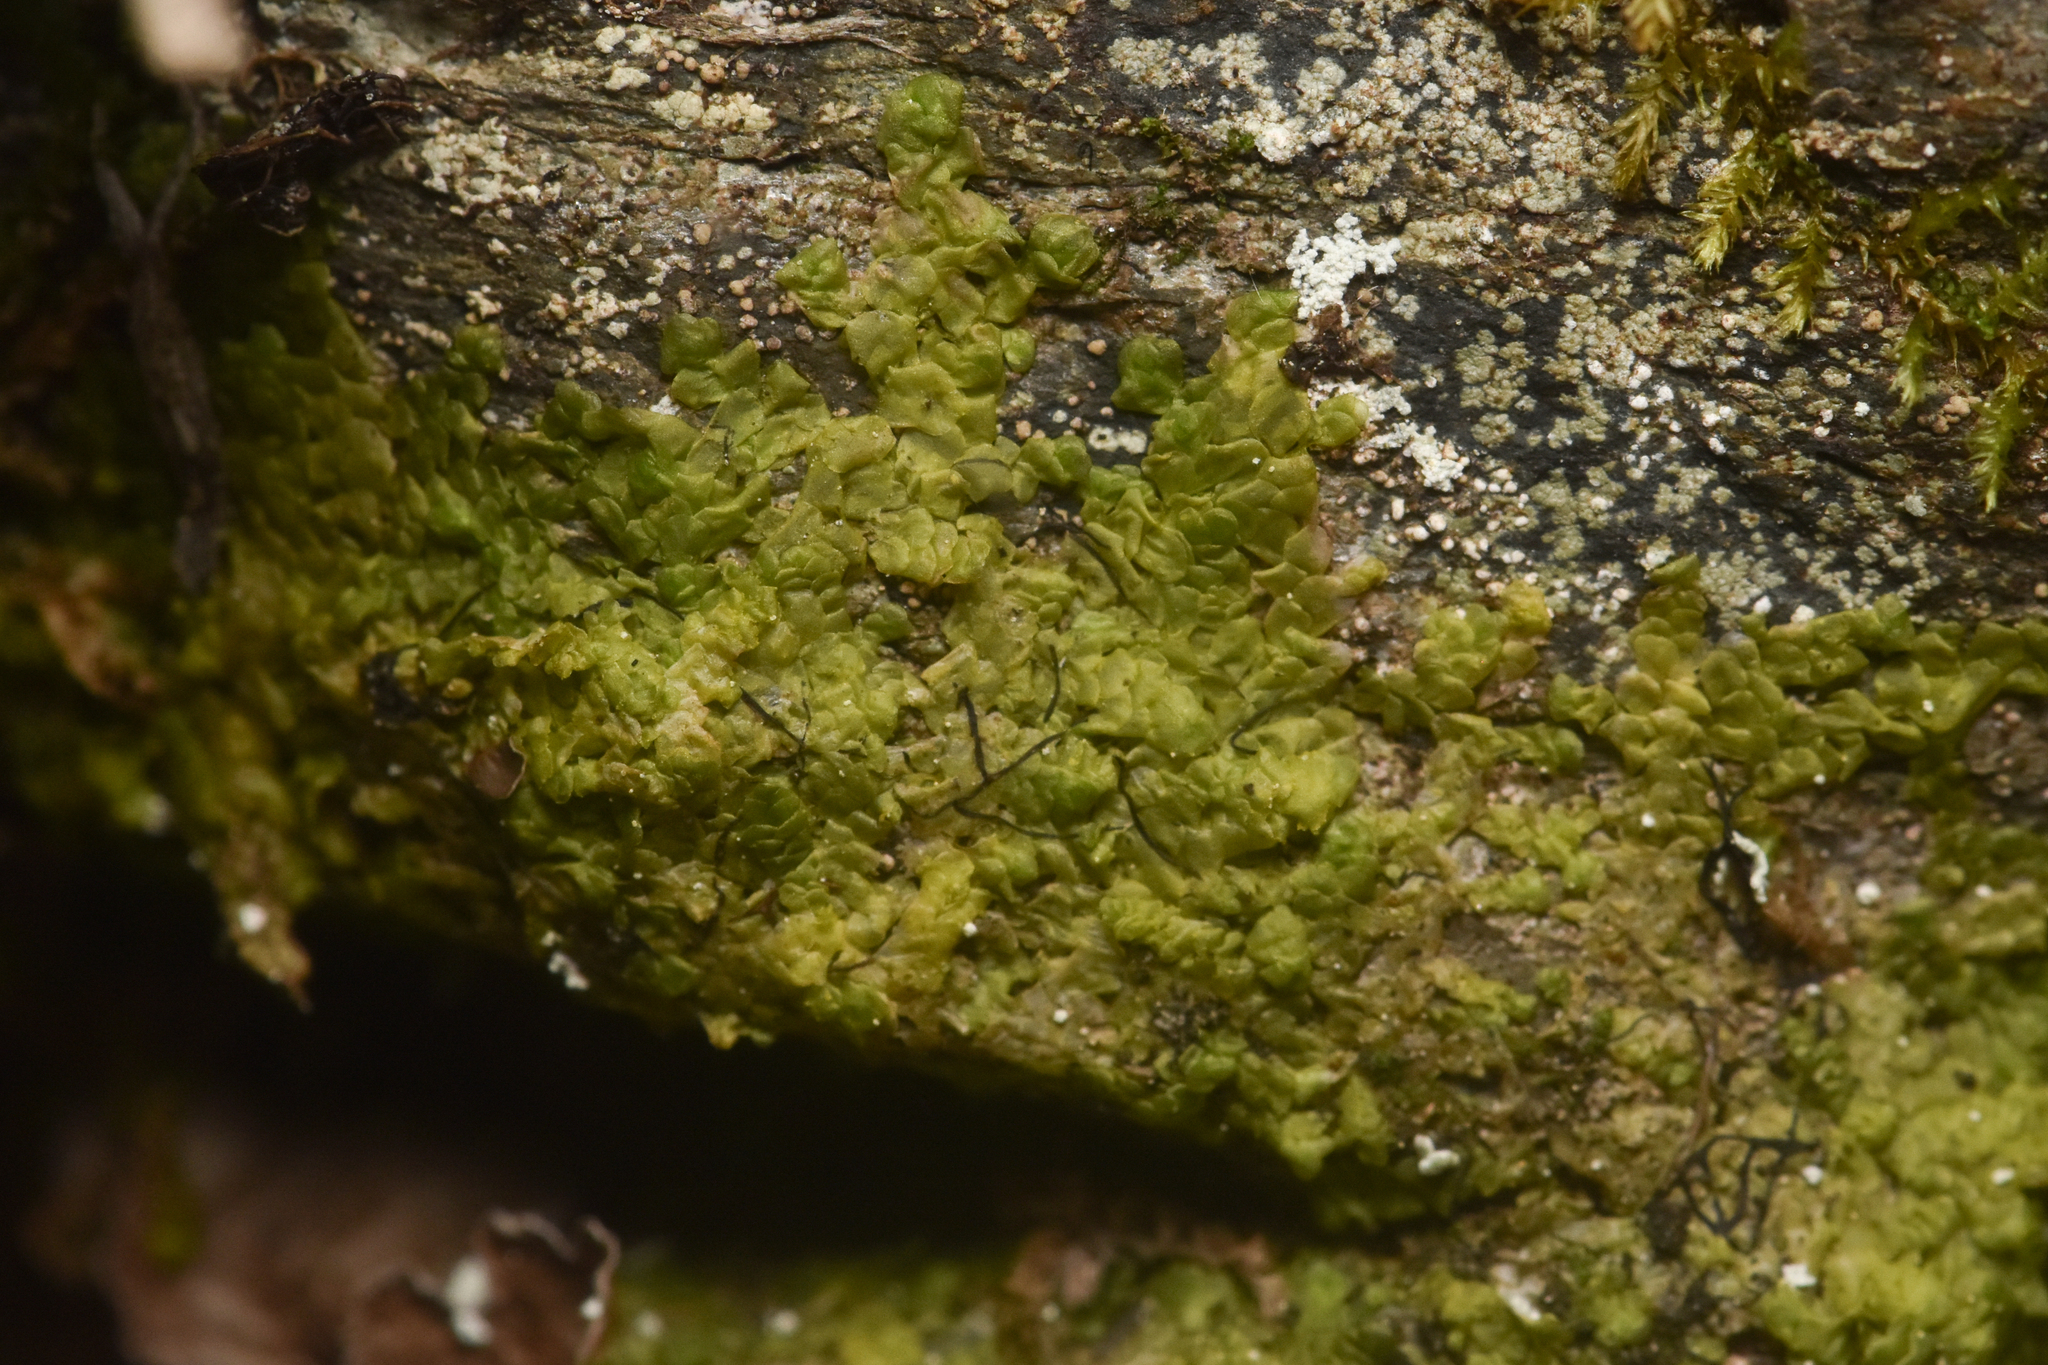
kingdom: Plantae
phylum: Marchantiophyta
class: Jungermanniopsida
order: Porellales
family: Radulaceae
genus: Radula
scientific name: Radula complanata
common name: Flat-leaved scalewort
